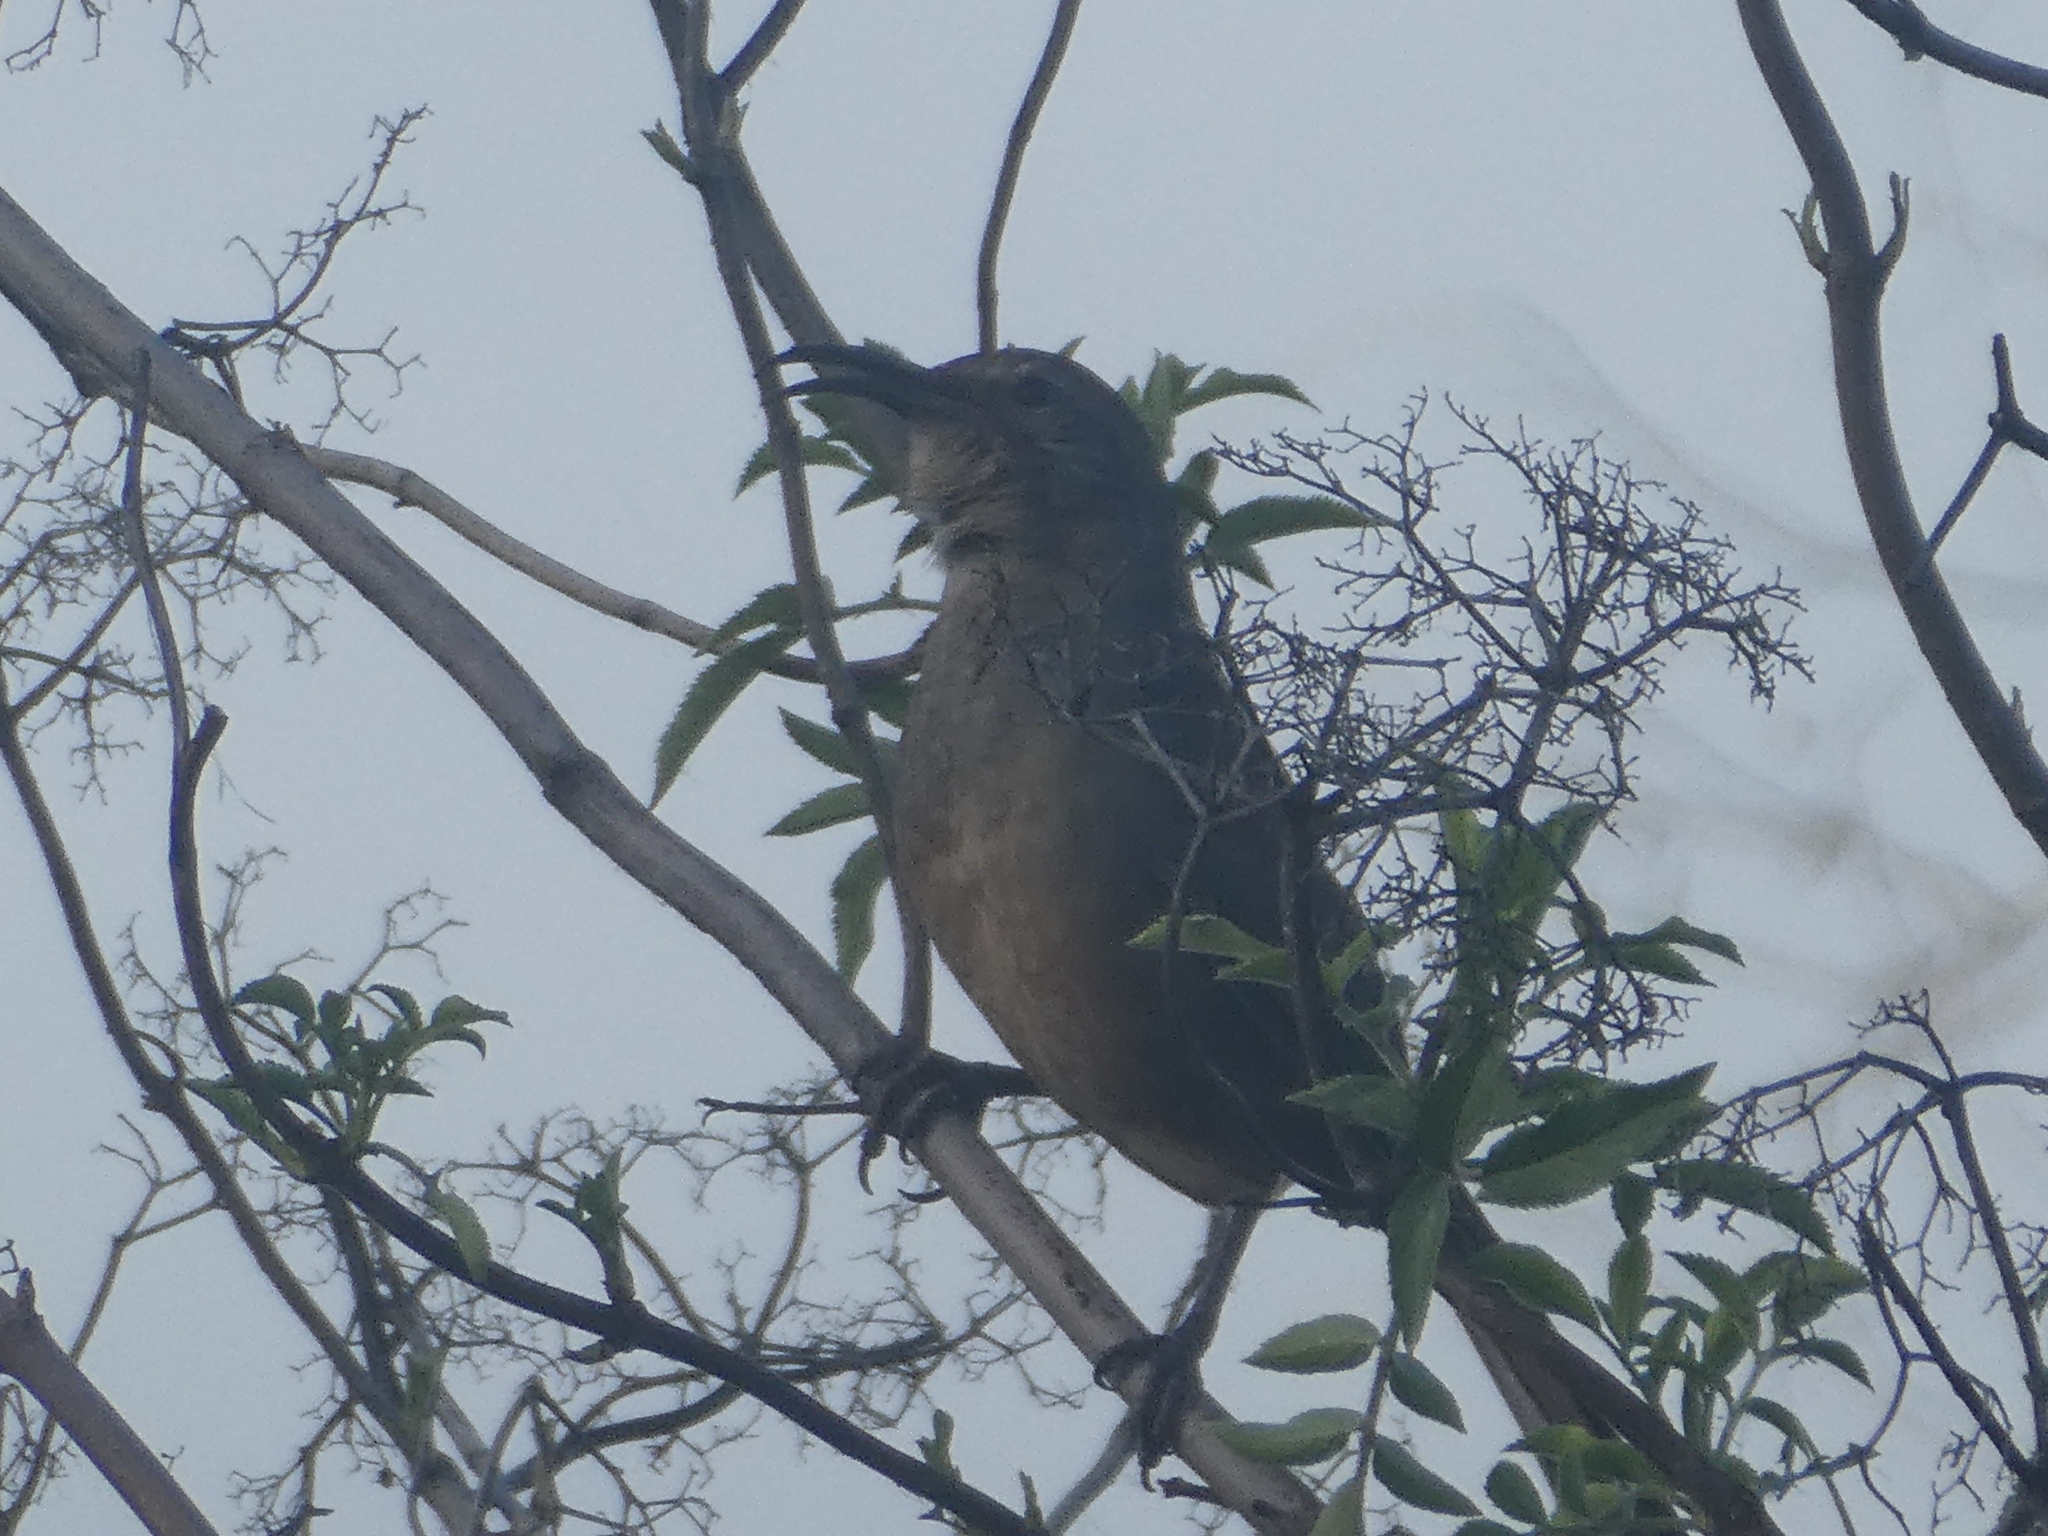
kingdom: Animalia
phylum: Chordata
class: Aves
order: Passeriformes
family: Mimidae
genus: Toxostoma
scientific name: Toxostoma redivivum
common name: California thrasher
